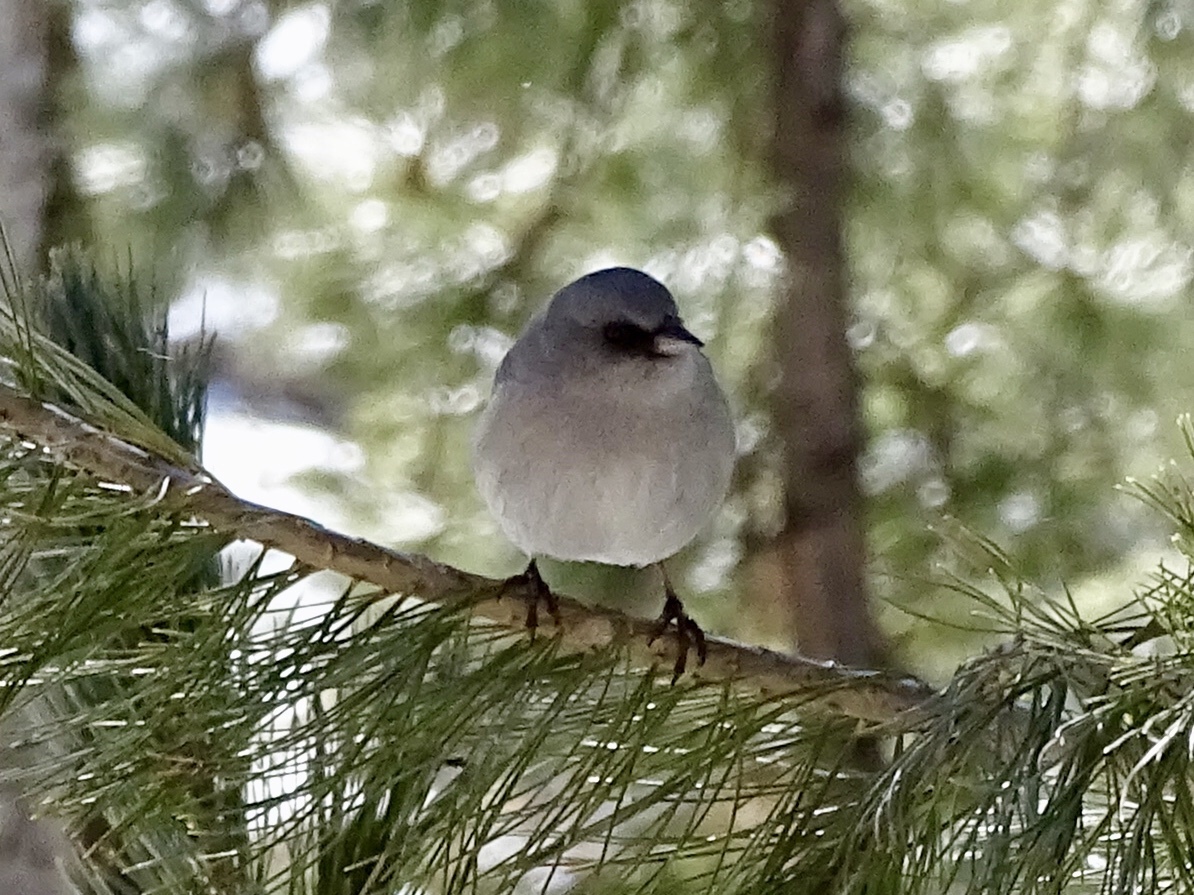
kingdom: Animalia
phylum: Chordata
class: Aves
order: Passeriformes
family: Passerellidae
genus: Junco
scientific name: Junco hyemalis
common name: Dark-eyed junco
